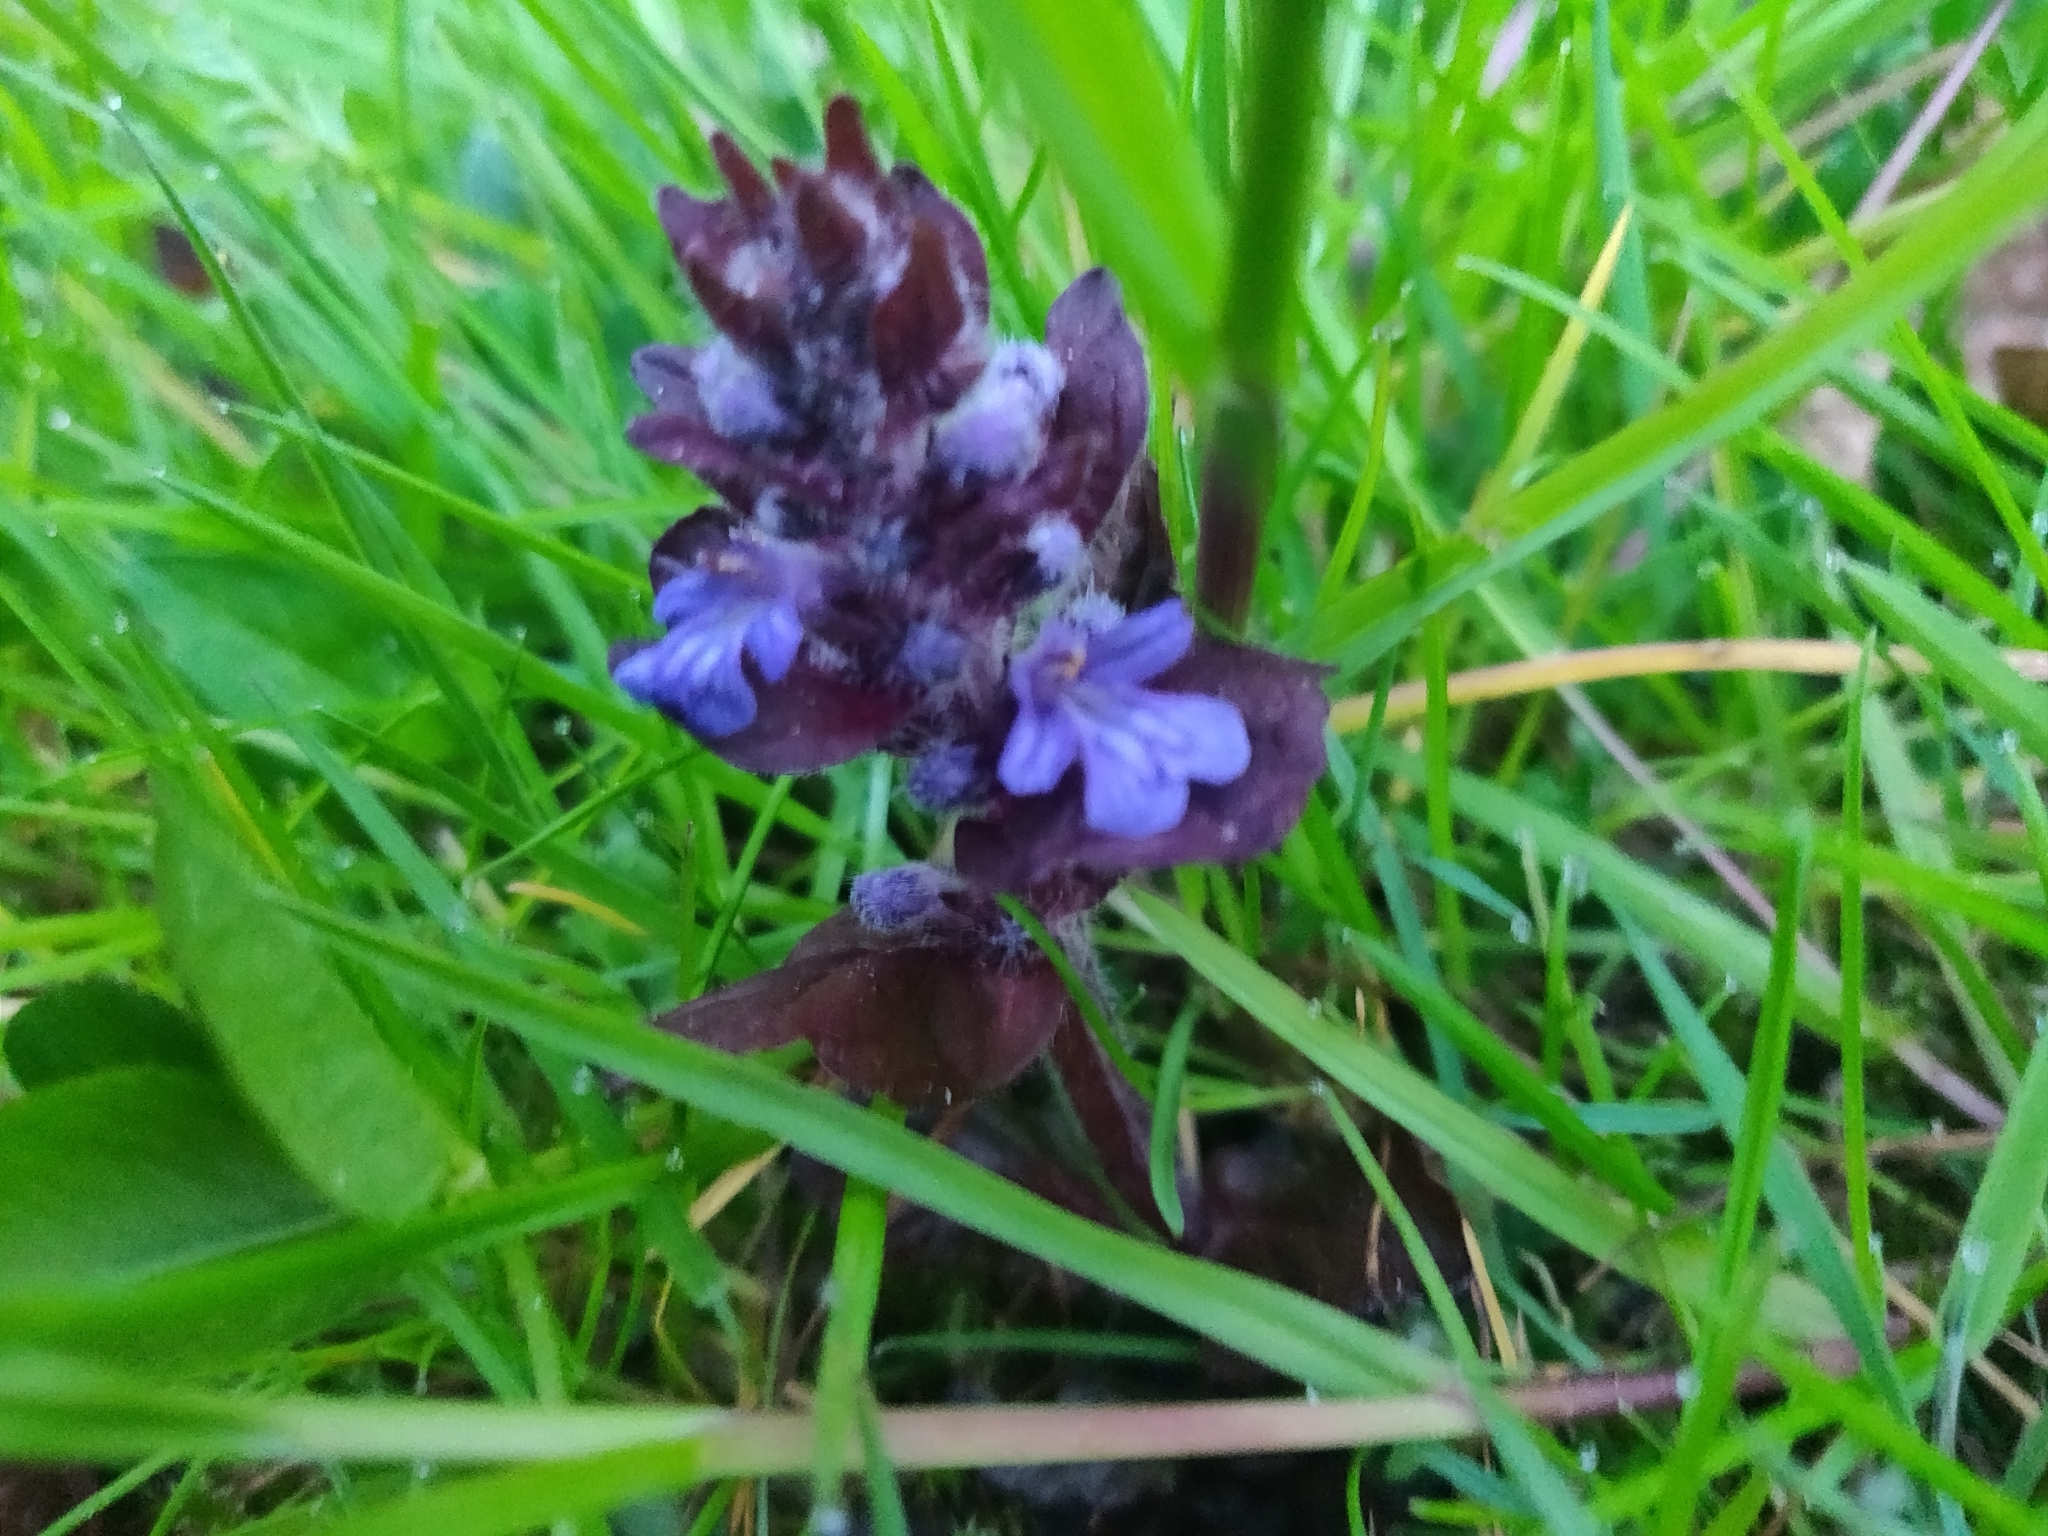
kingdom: Plantae
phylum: Tracheophyta
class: Magnoliopsida
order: Lamiales
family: Lamiaceae
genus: Ajuga
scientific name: Ajuga reptans
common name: Bugle
